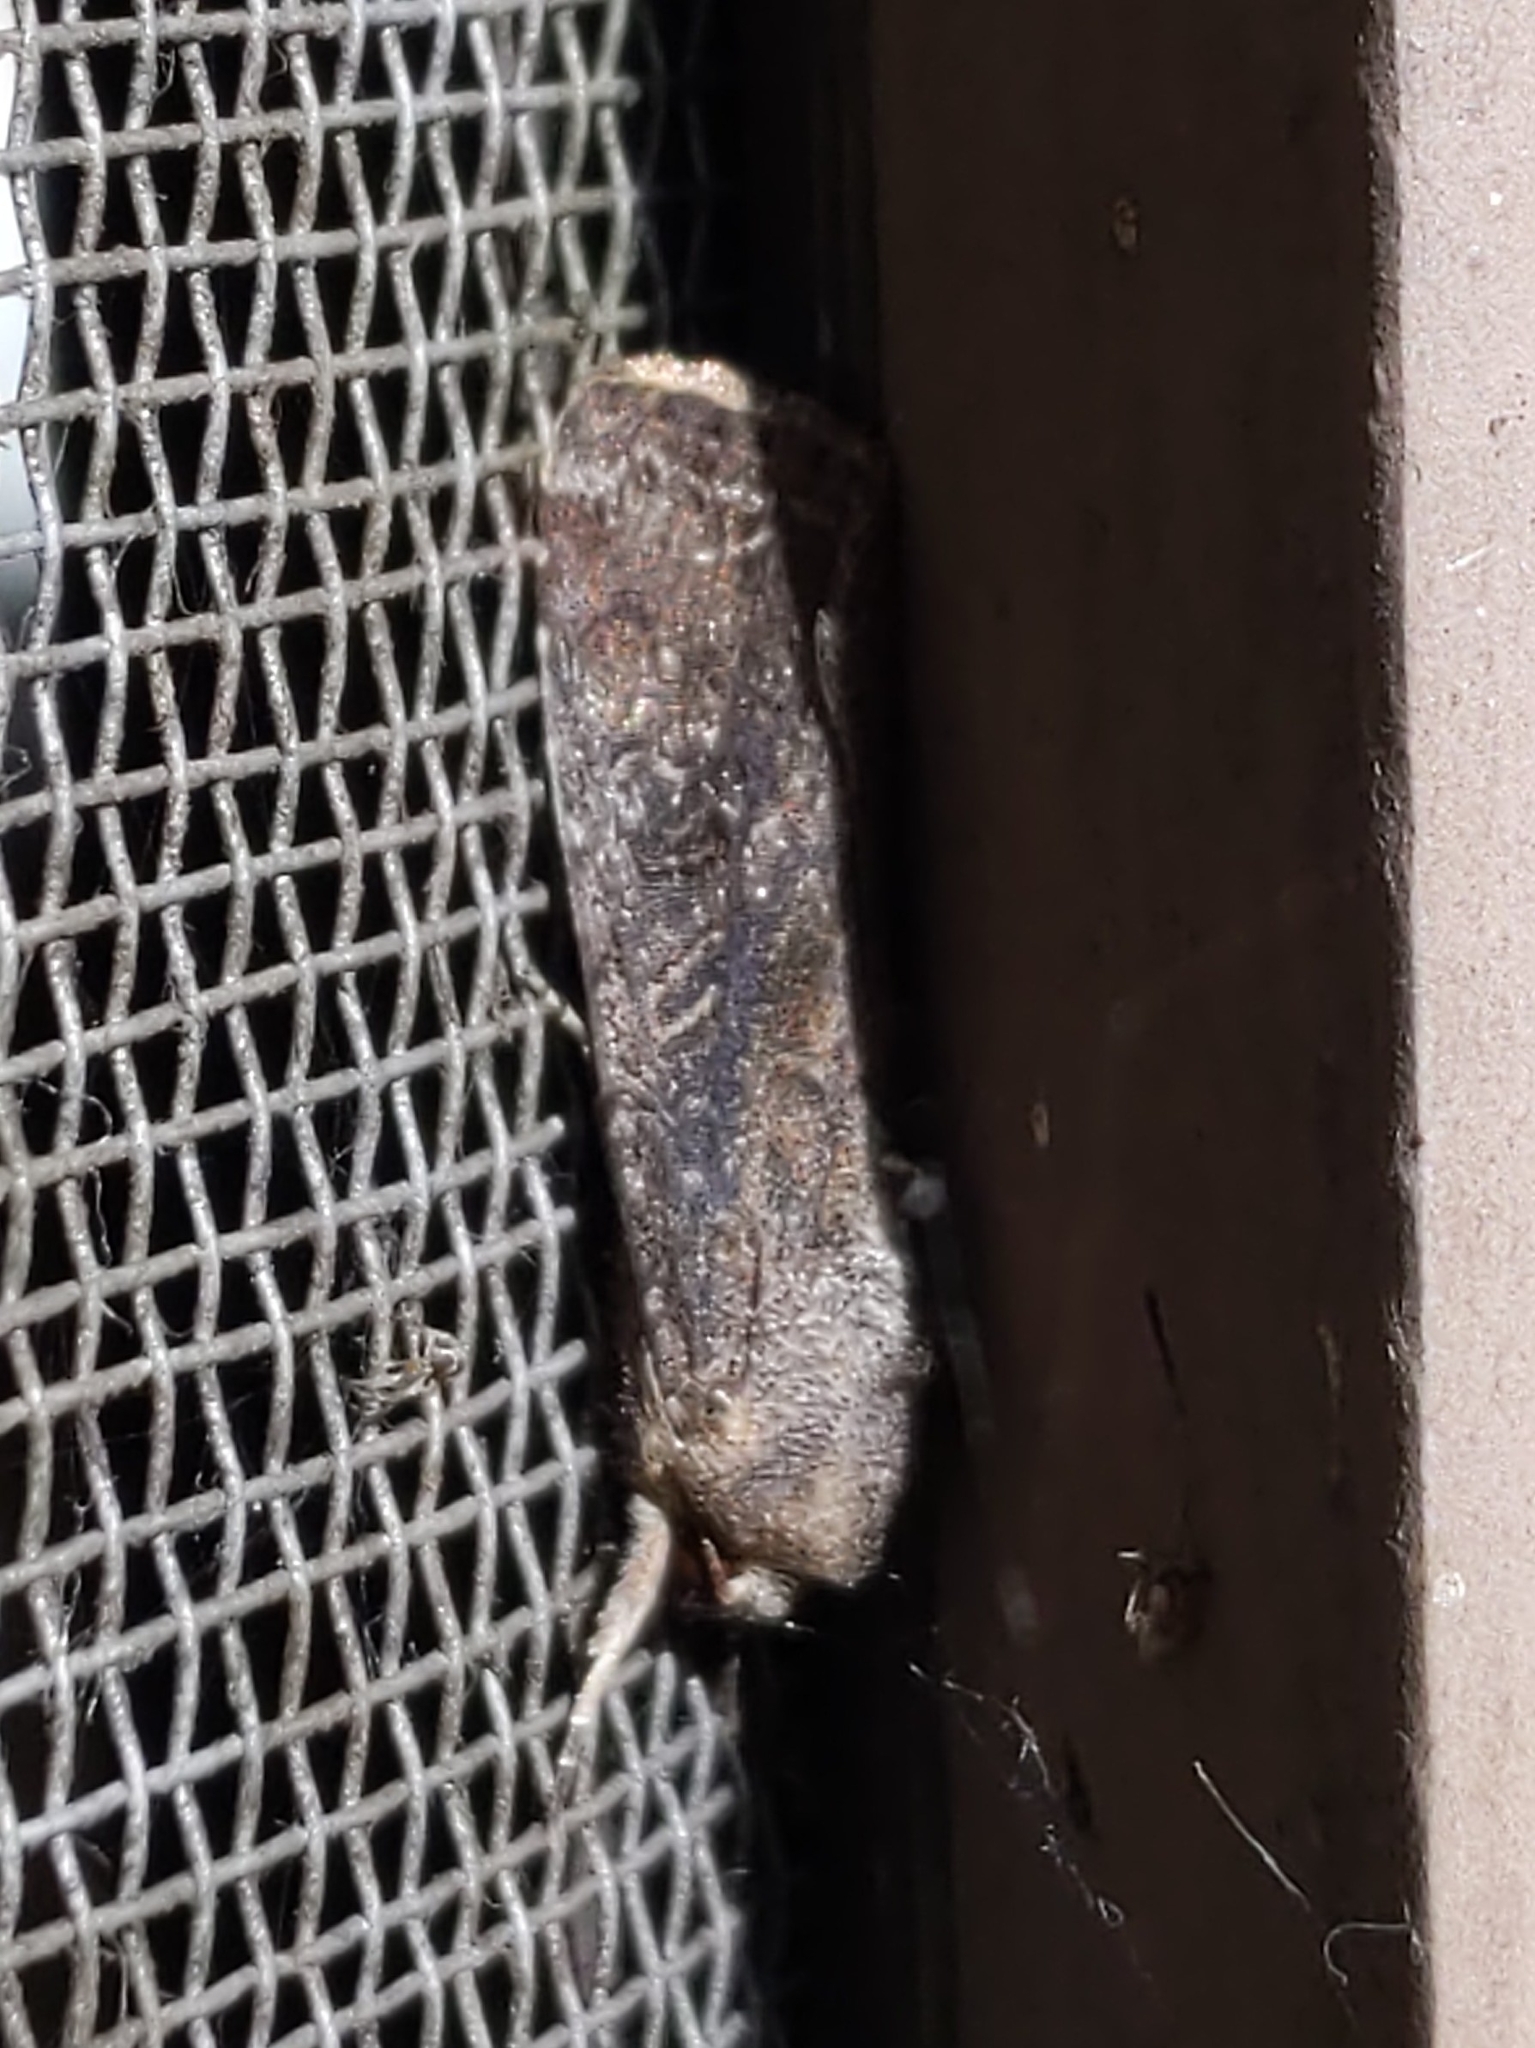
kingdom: Animalia
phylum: Arthropoda
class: Insecta
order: Lepidoptera
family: Noctuidae
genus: Spodoptera
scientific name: Spodoptera frugiperda
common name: Fall armyworm
